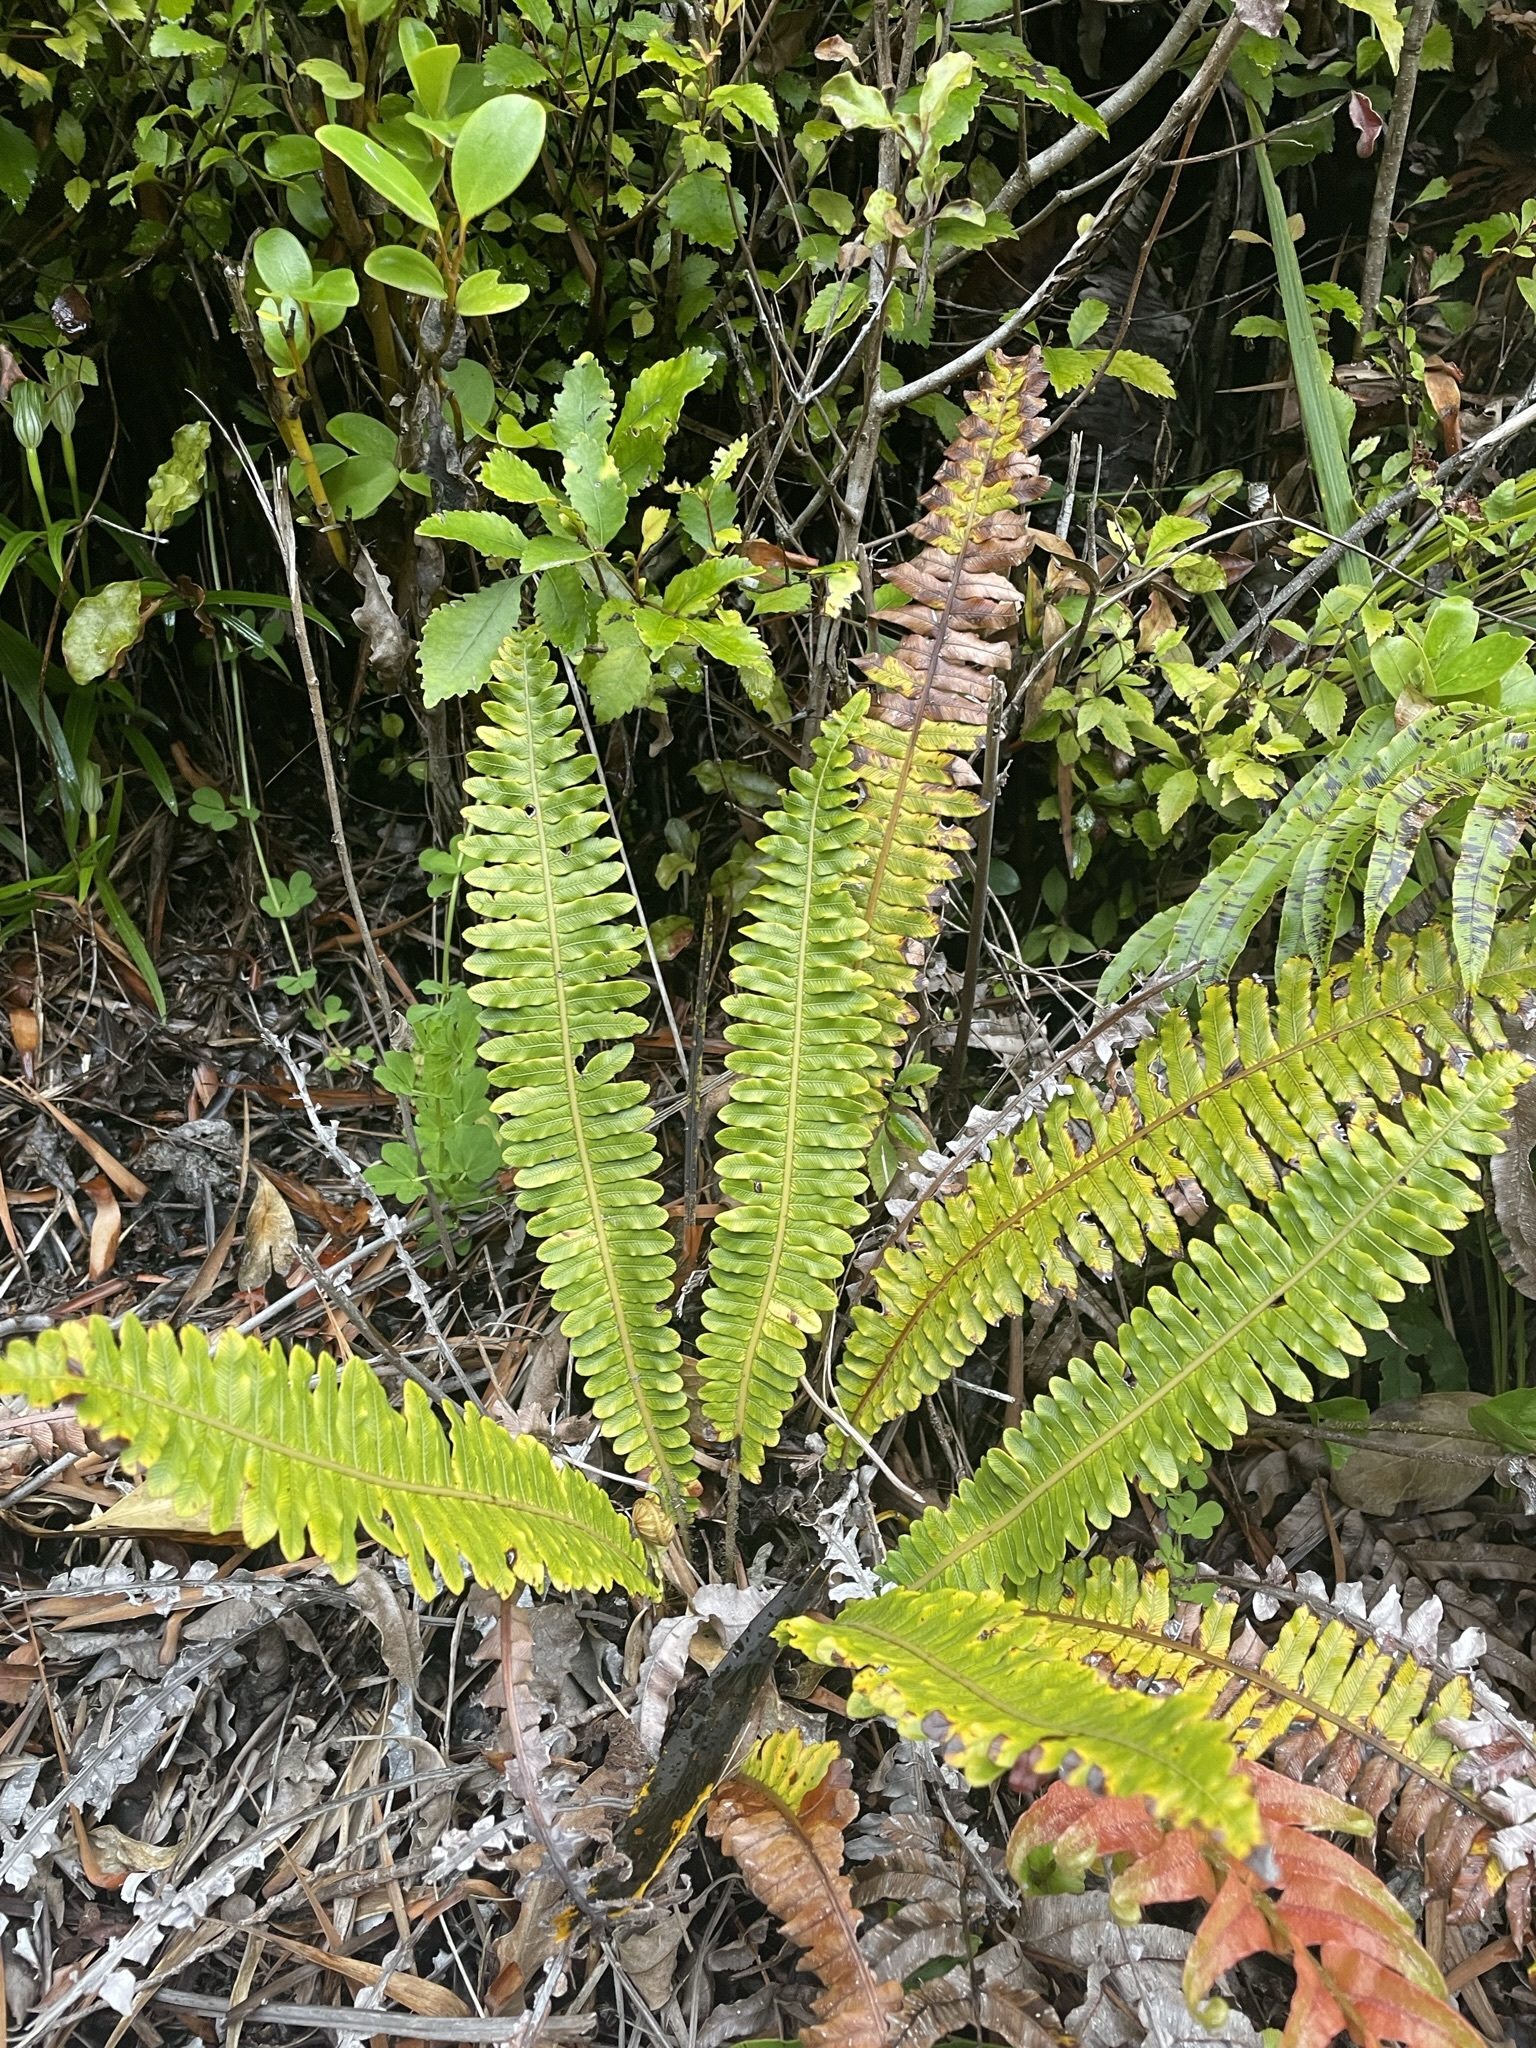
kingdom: Plantae
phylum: Tracheophyta
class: Polypodiopsida
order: Polypodiales
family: Blechnaceae
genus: Lomaria
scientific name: Lomaria discolor
